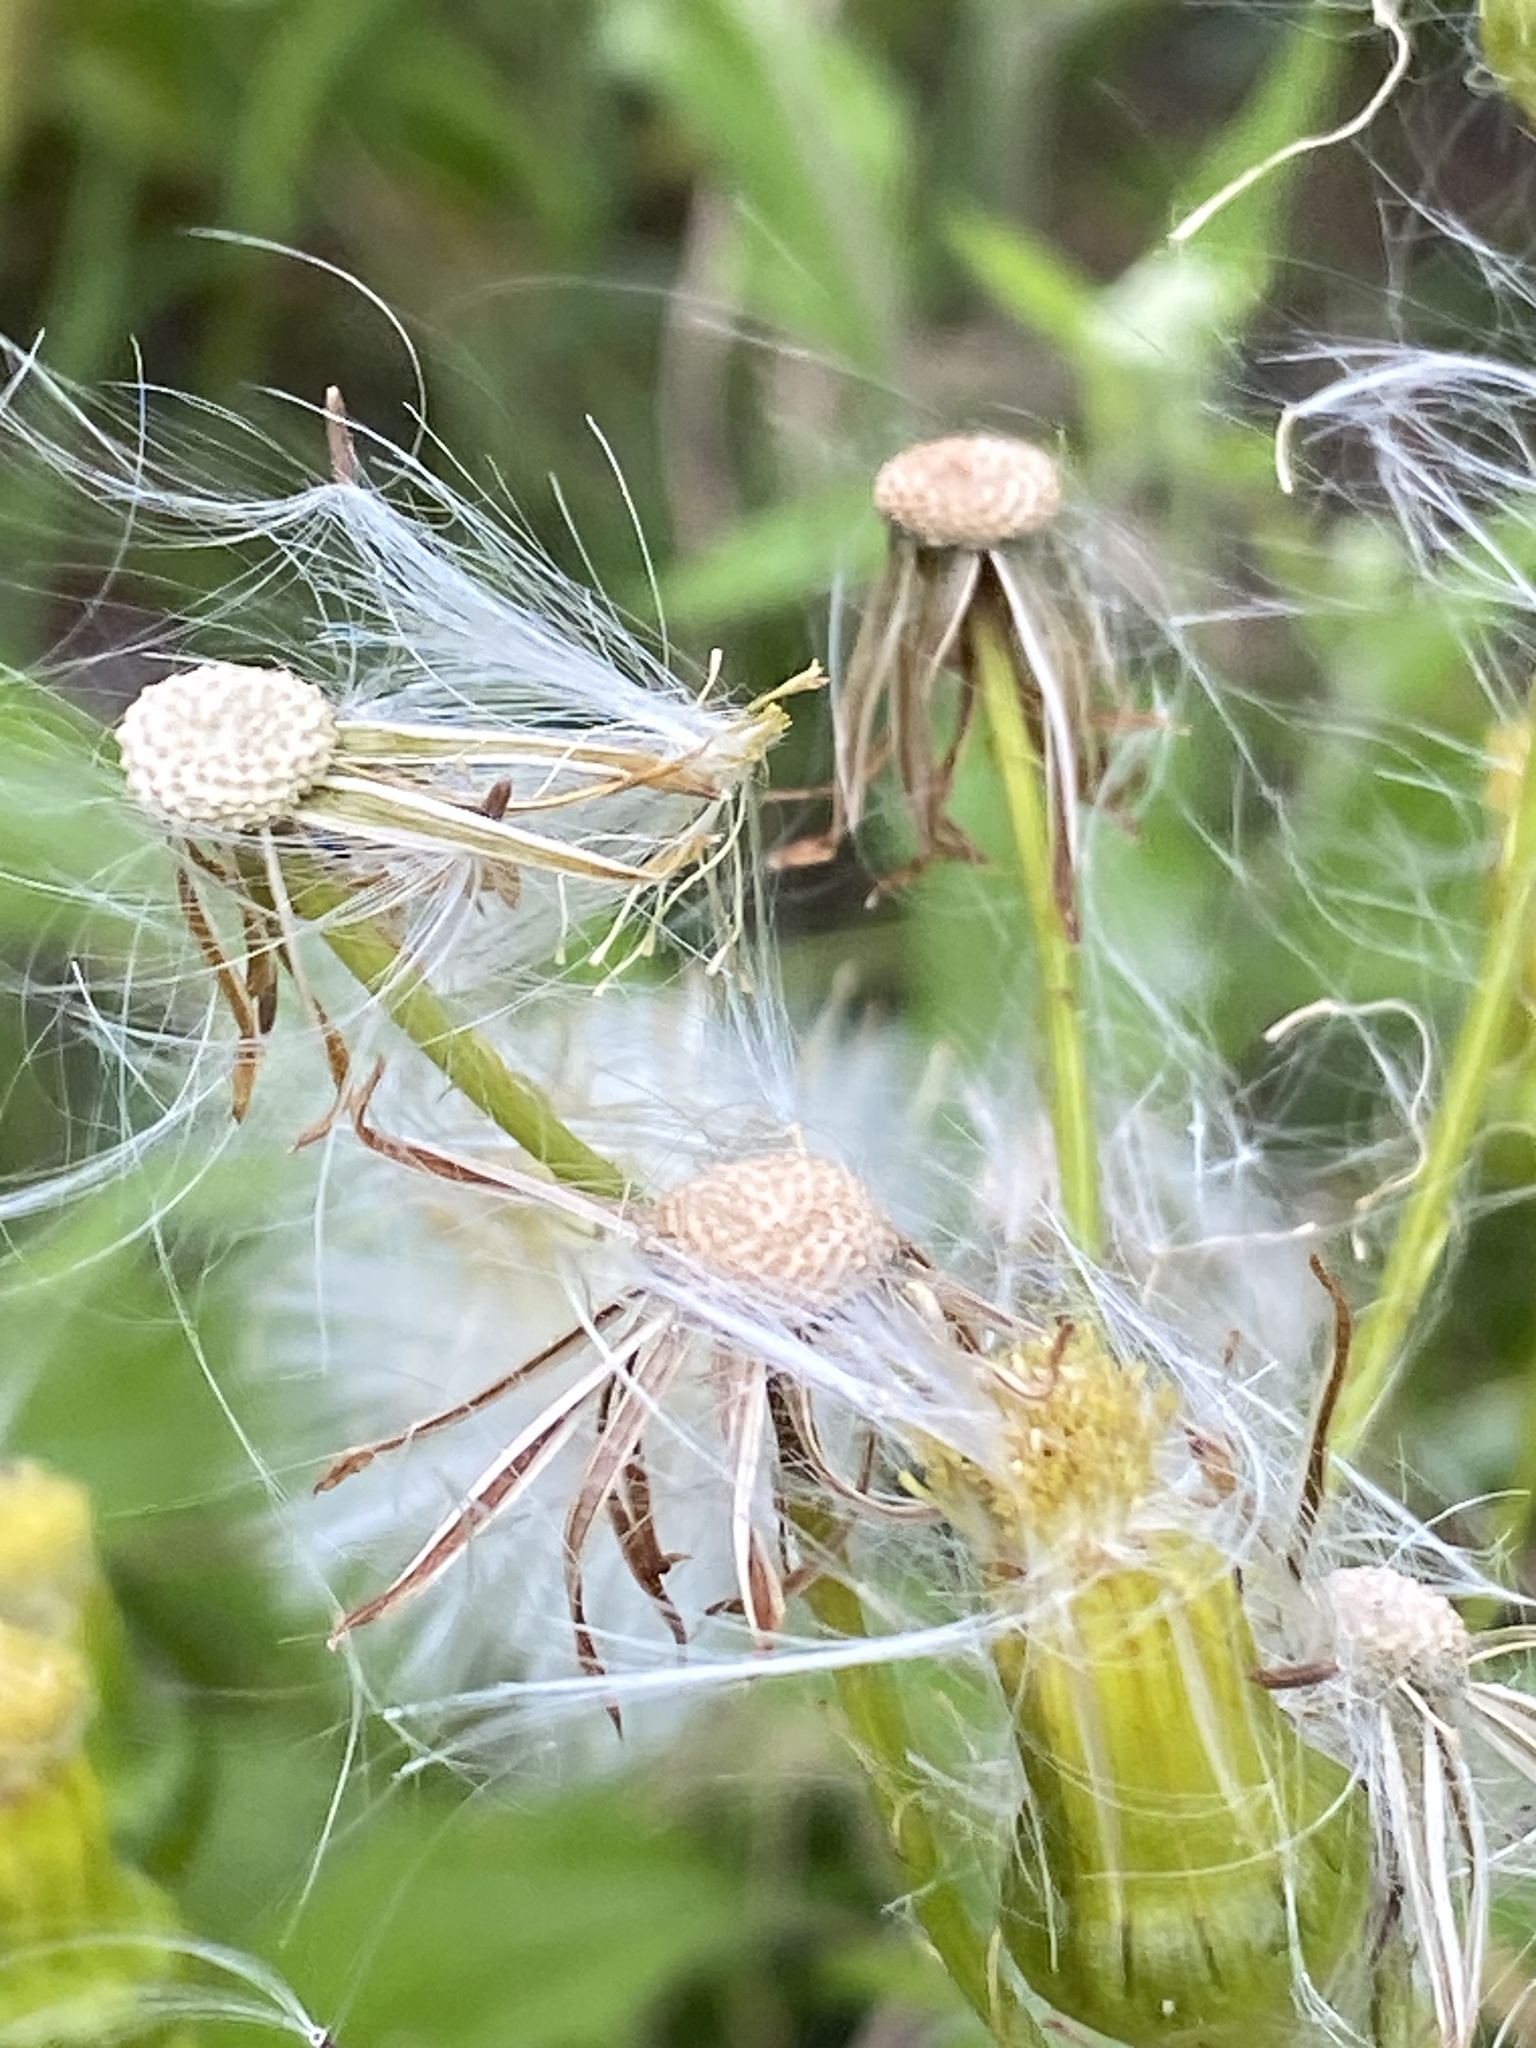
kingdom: Plantae
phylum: Tracheophyta
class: Magnoliopsida
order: Asterales
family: Asteraceae
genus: Erechtites
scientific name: Erechtites hieraciifolius
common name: American burnweed
